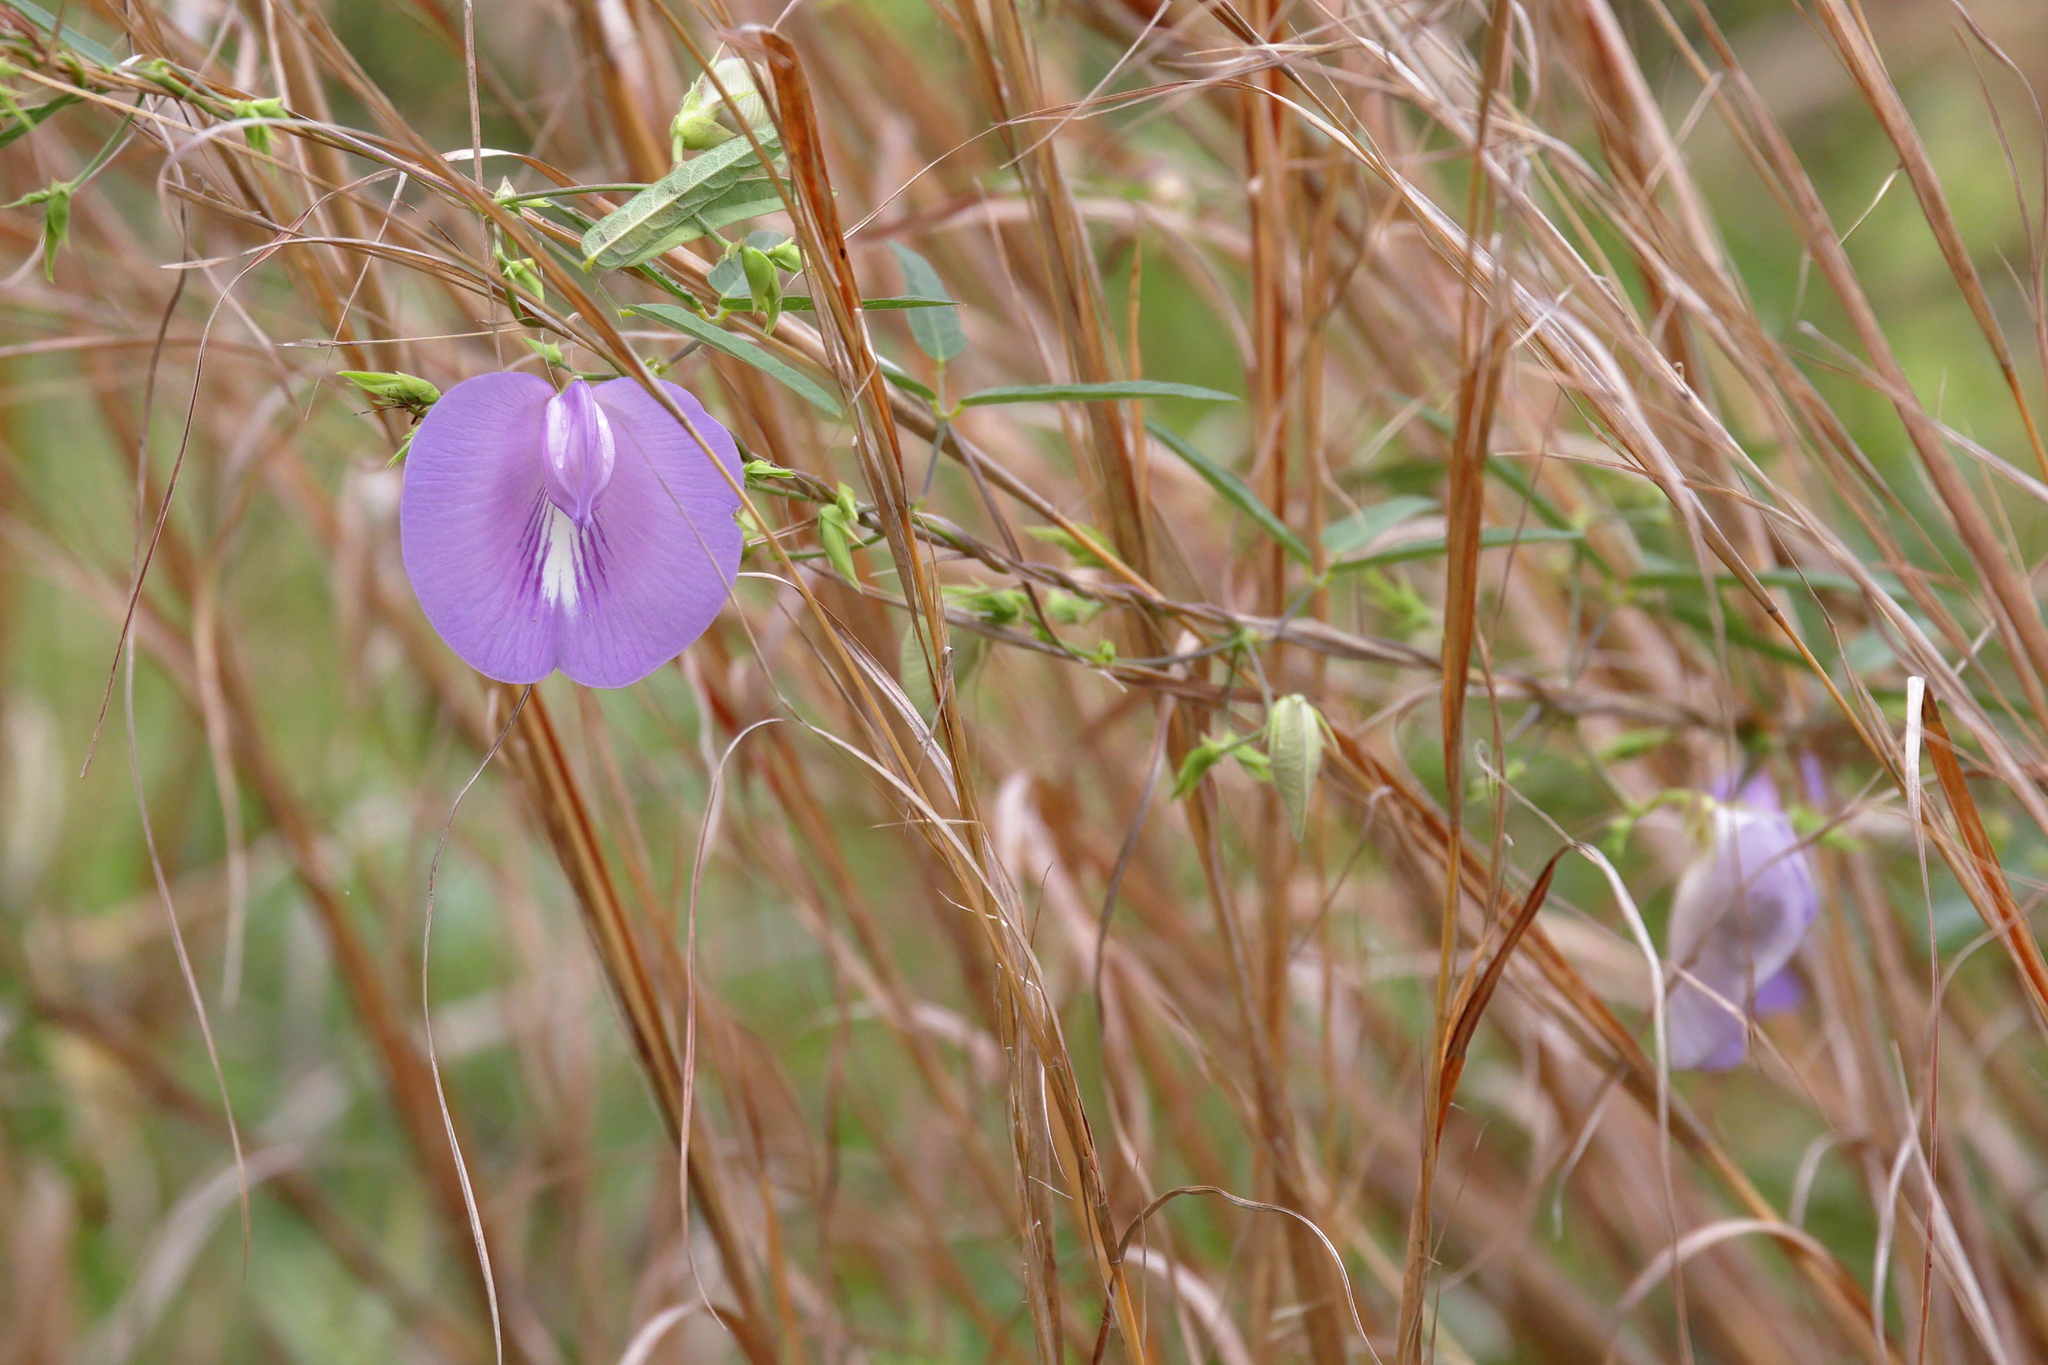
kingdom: Plantae
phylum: Tracheophyta
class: Magnoliopsida
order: Fabales
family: Fabaceae
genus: Centrosema
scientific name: Centrosema virginianum
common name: Butterfly-pea
